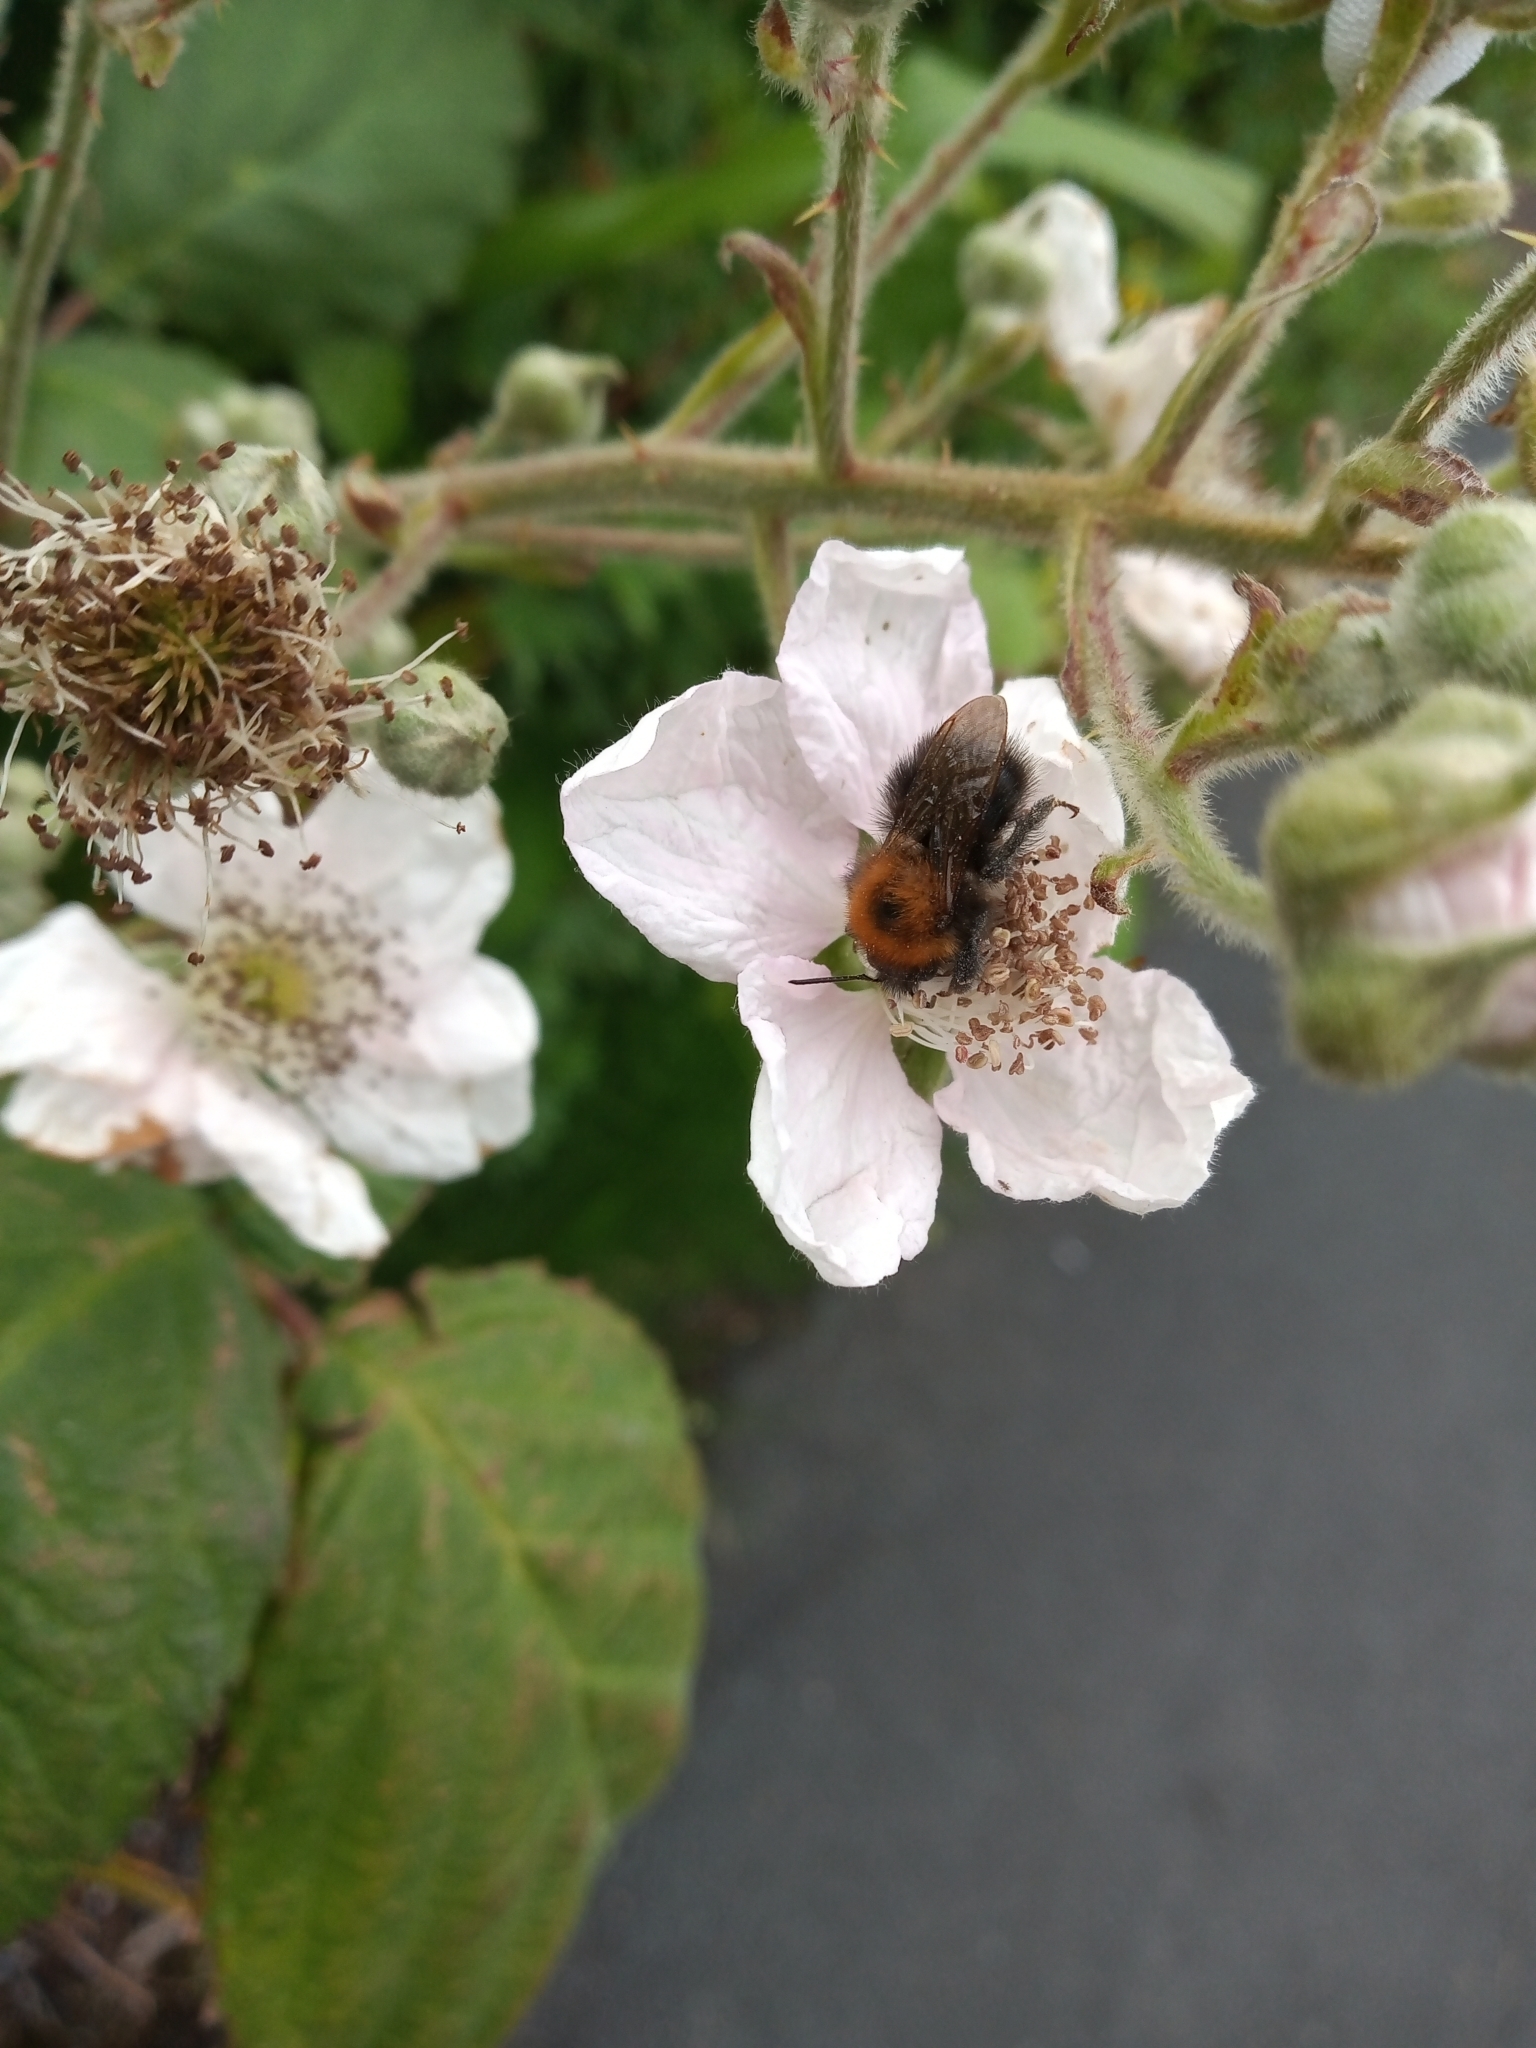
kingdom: Animalia
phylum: Arthropoda
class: Insecta
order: Hymenoptera
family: Apidae
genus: Bombus
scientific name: Bombus hypnorum
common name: New garden bumblebee
